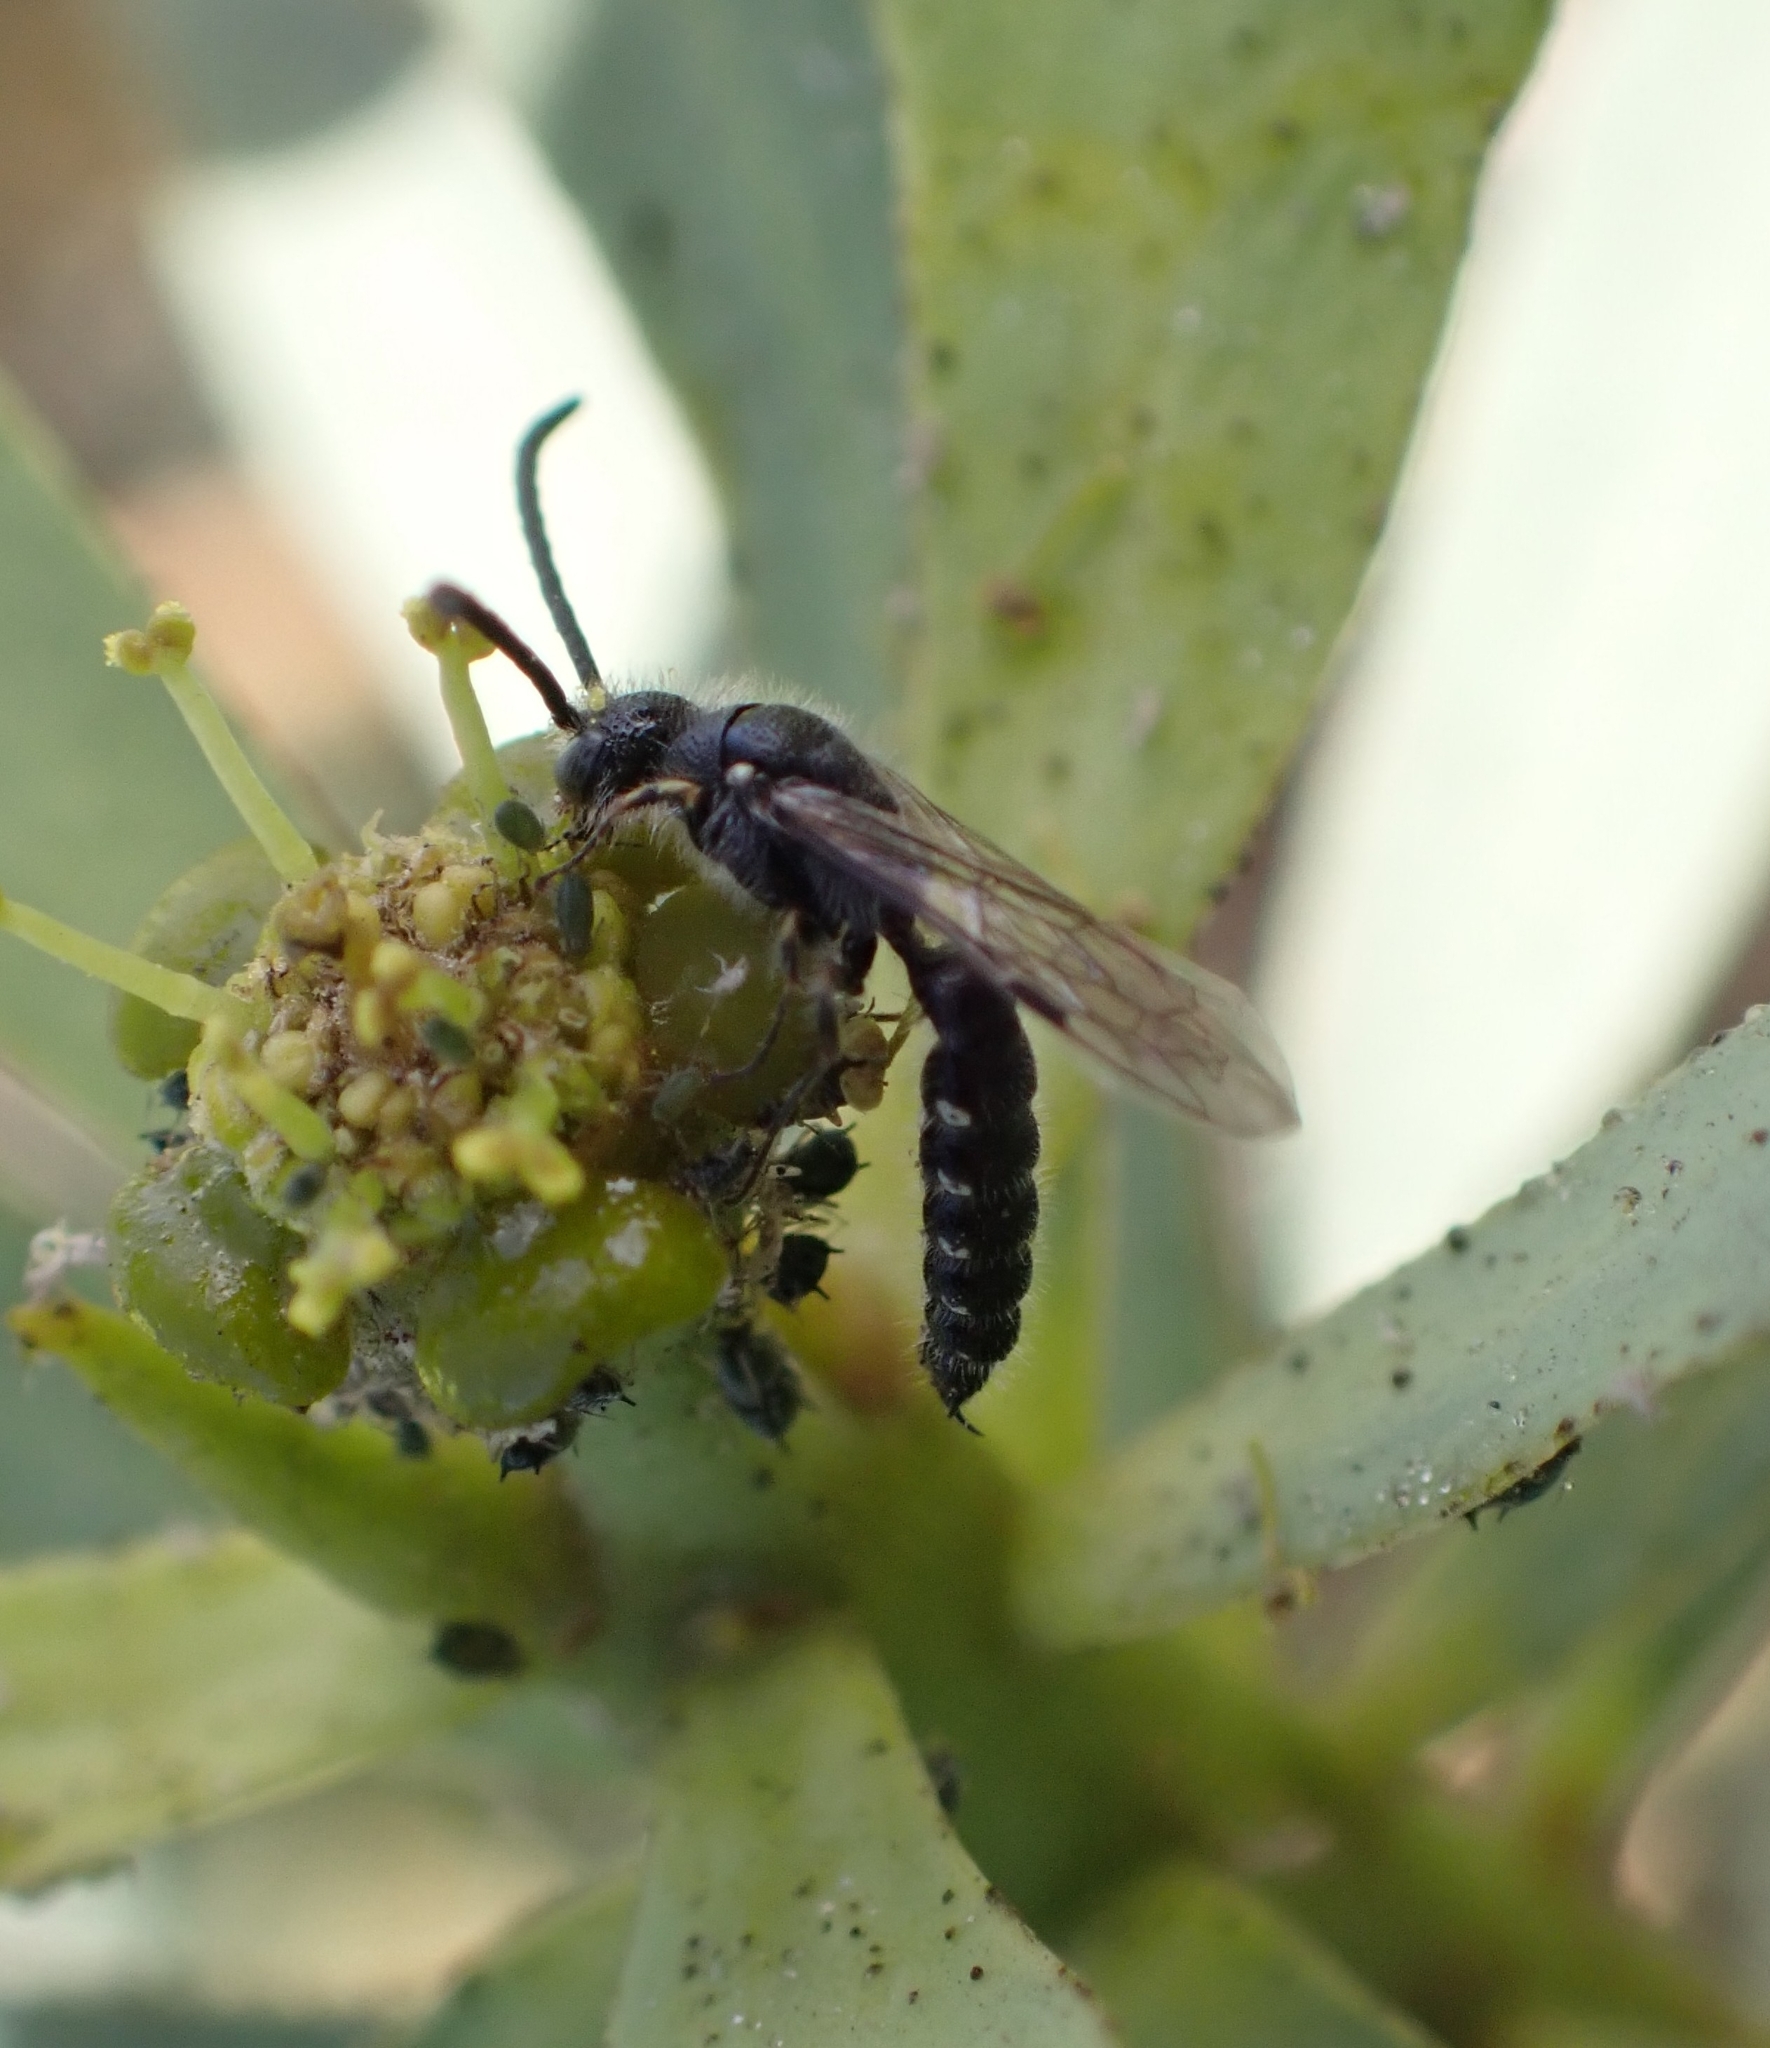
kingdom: Animalia
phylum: Arthropoda
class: Insecta
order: Hymenoptera
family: Tiphiidae
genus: Poecilotiphia
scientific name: Poecilotiphia
